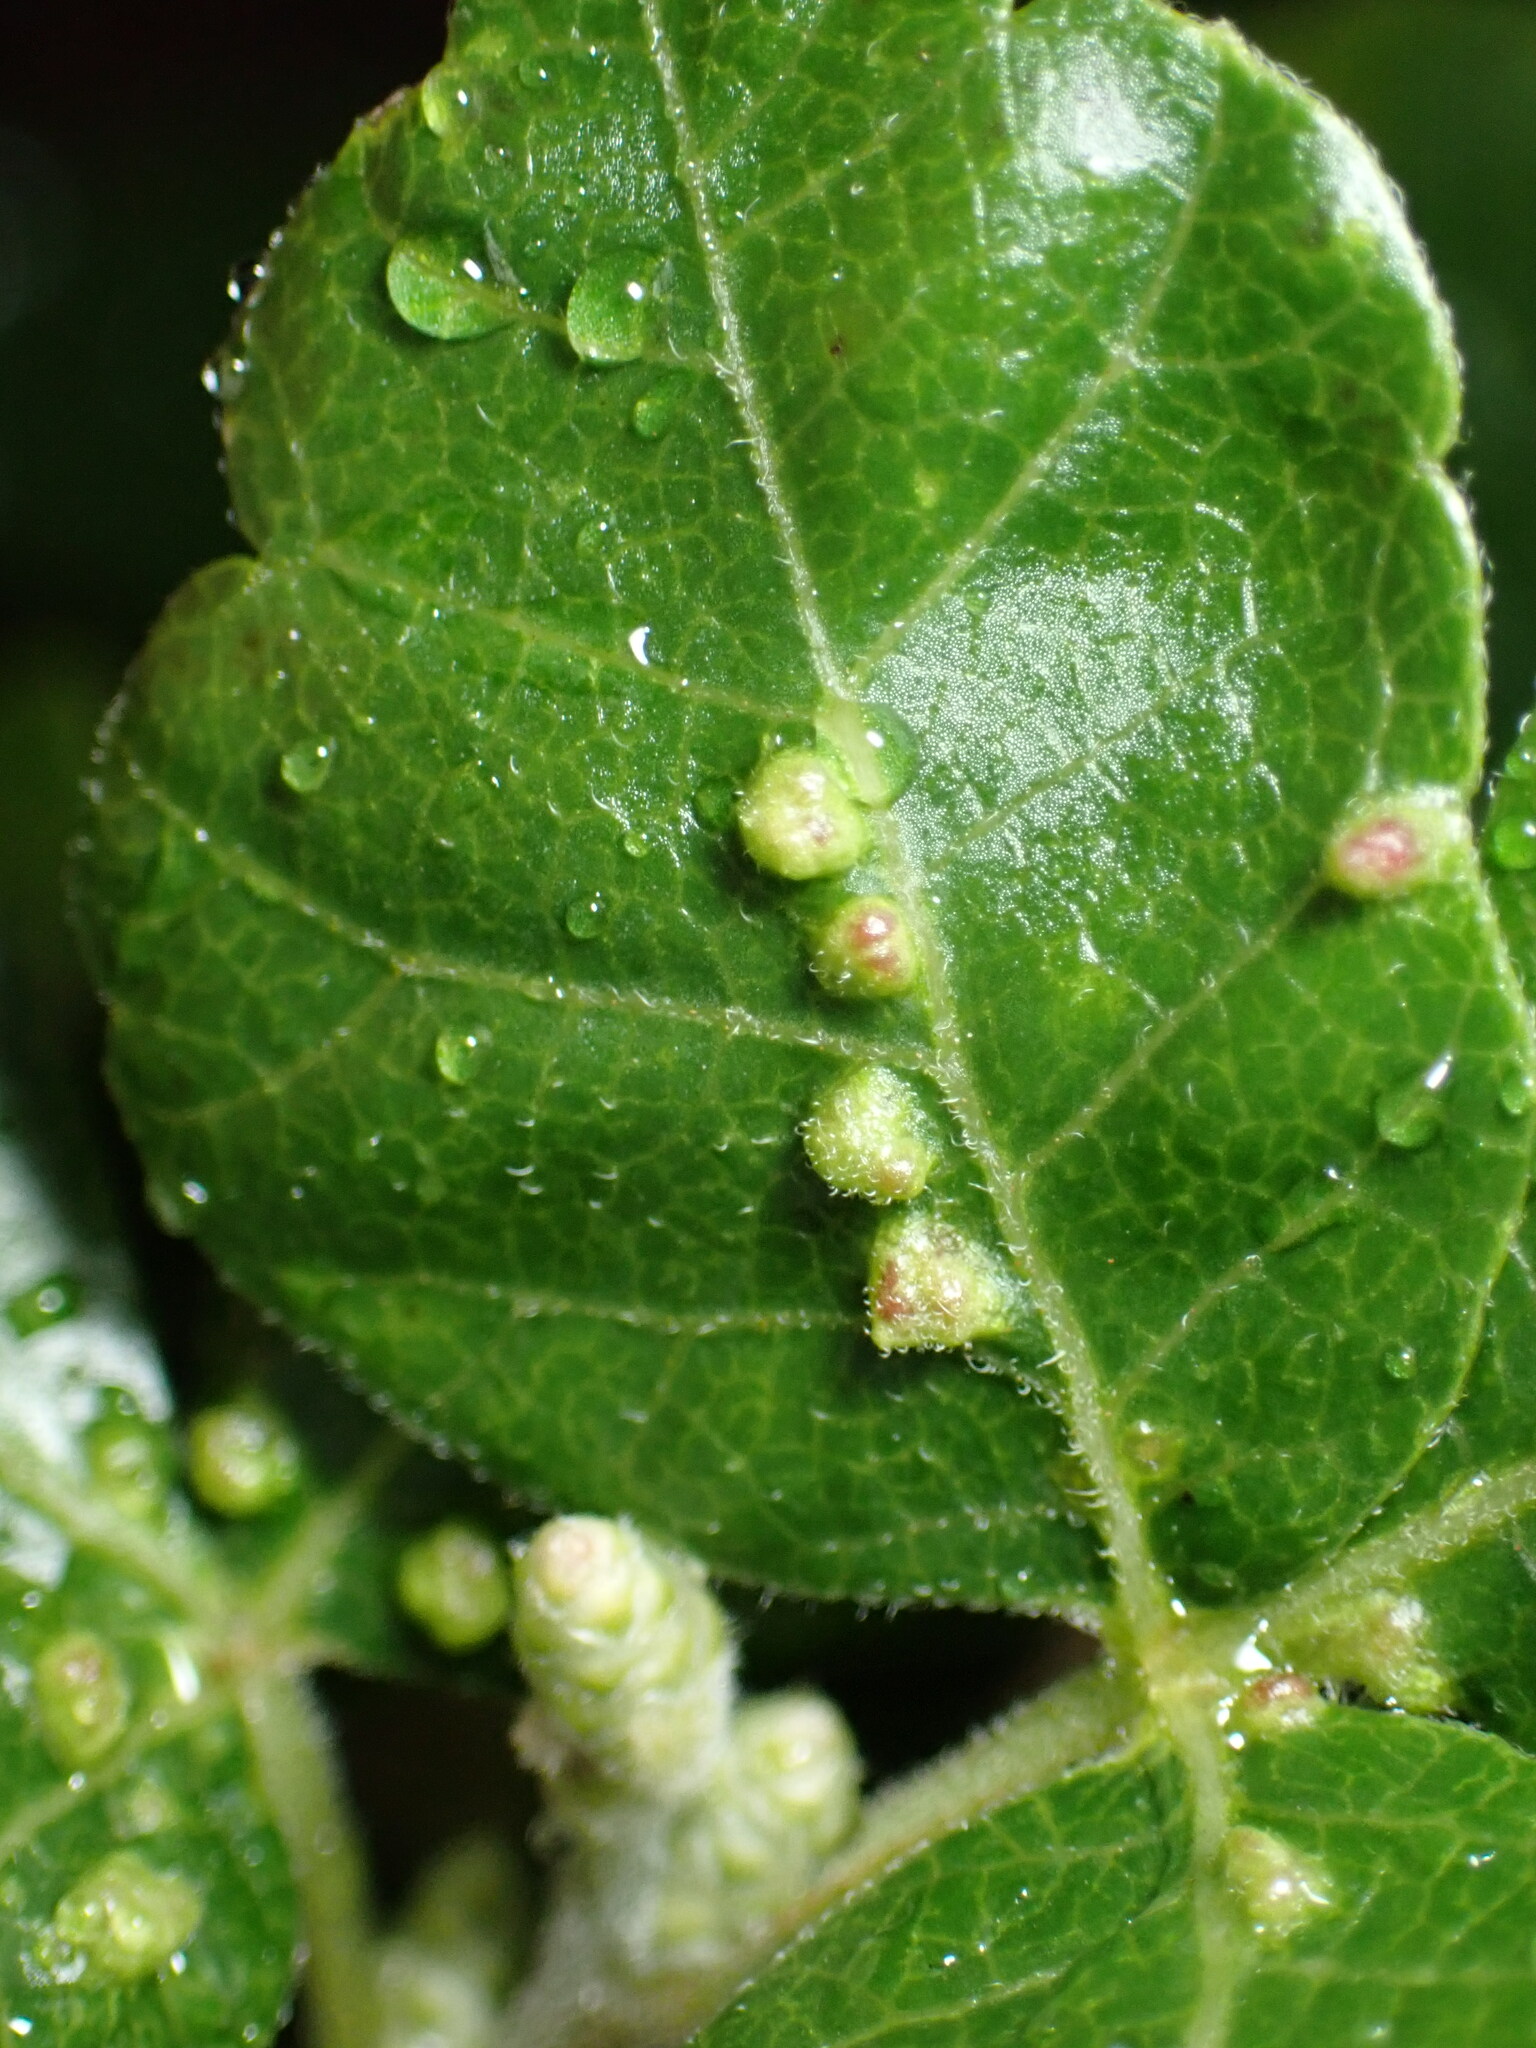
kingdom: Animalia
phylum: Arthropoda
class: Arachnida
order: Trombidiformes
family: Eriophyidae
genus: Aculops
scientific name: Aculops
